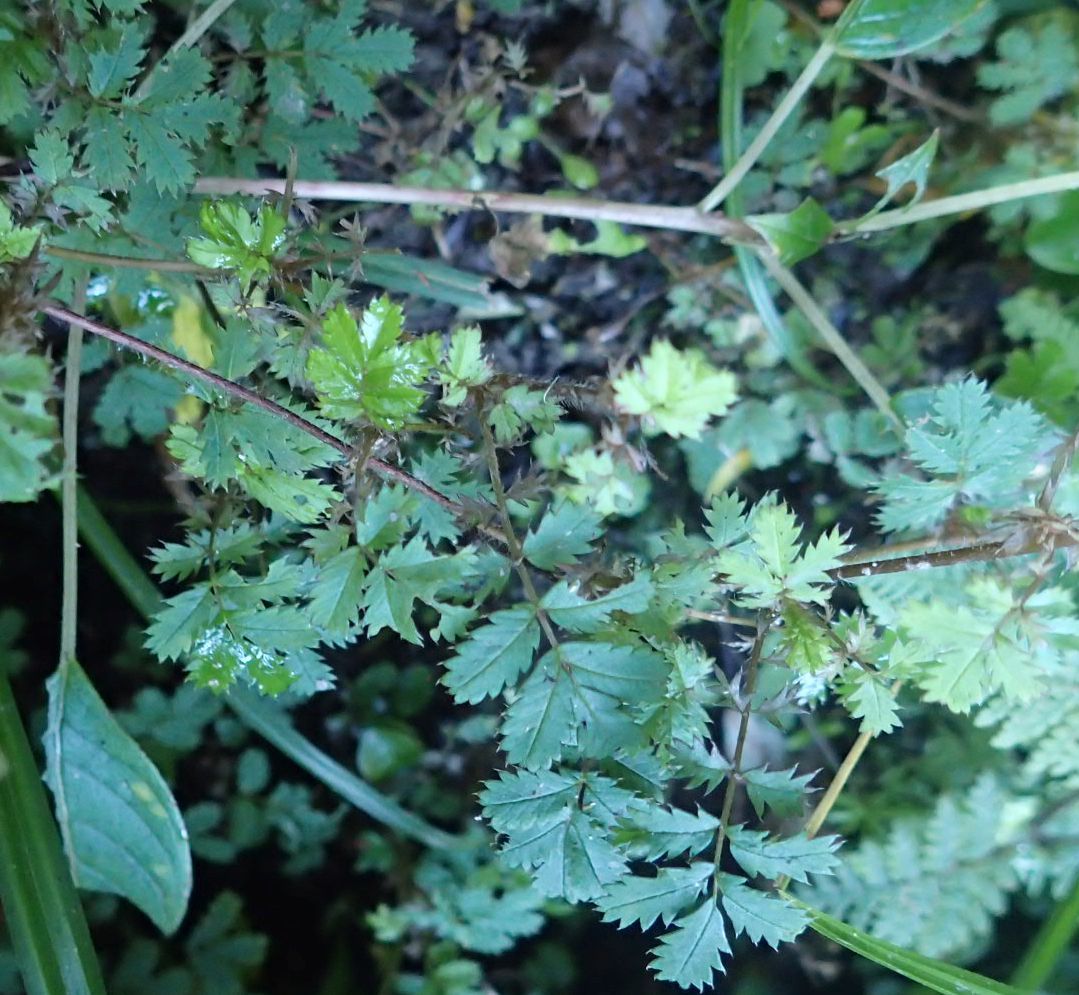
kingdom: Plantae
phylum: Tracheophyta
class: Magnoliopsida
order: Rosales
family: Rosaceae
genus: Acaena
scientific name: Acaena anserinifolia
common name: Bronze pirri-pirri-bur
